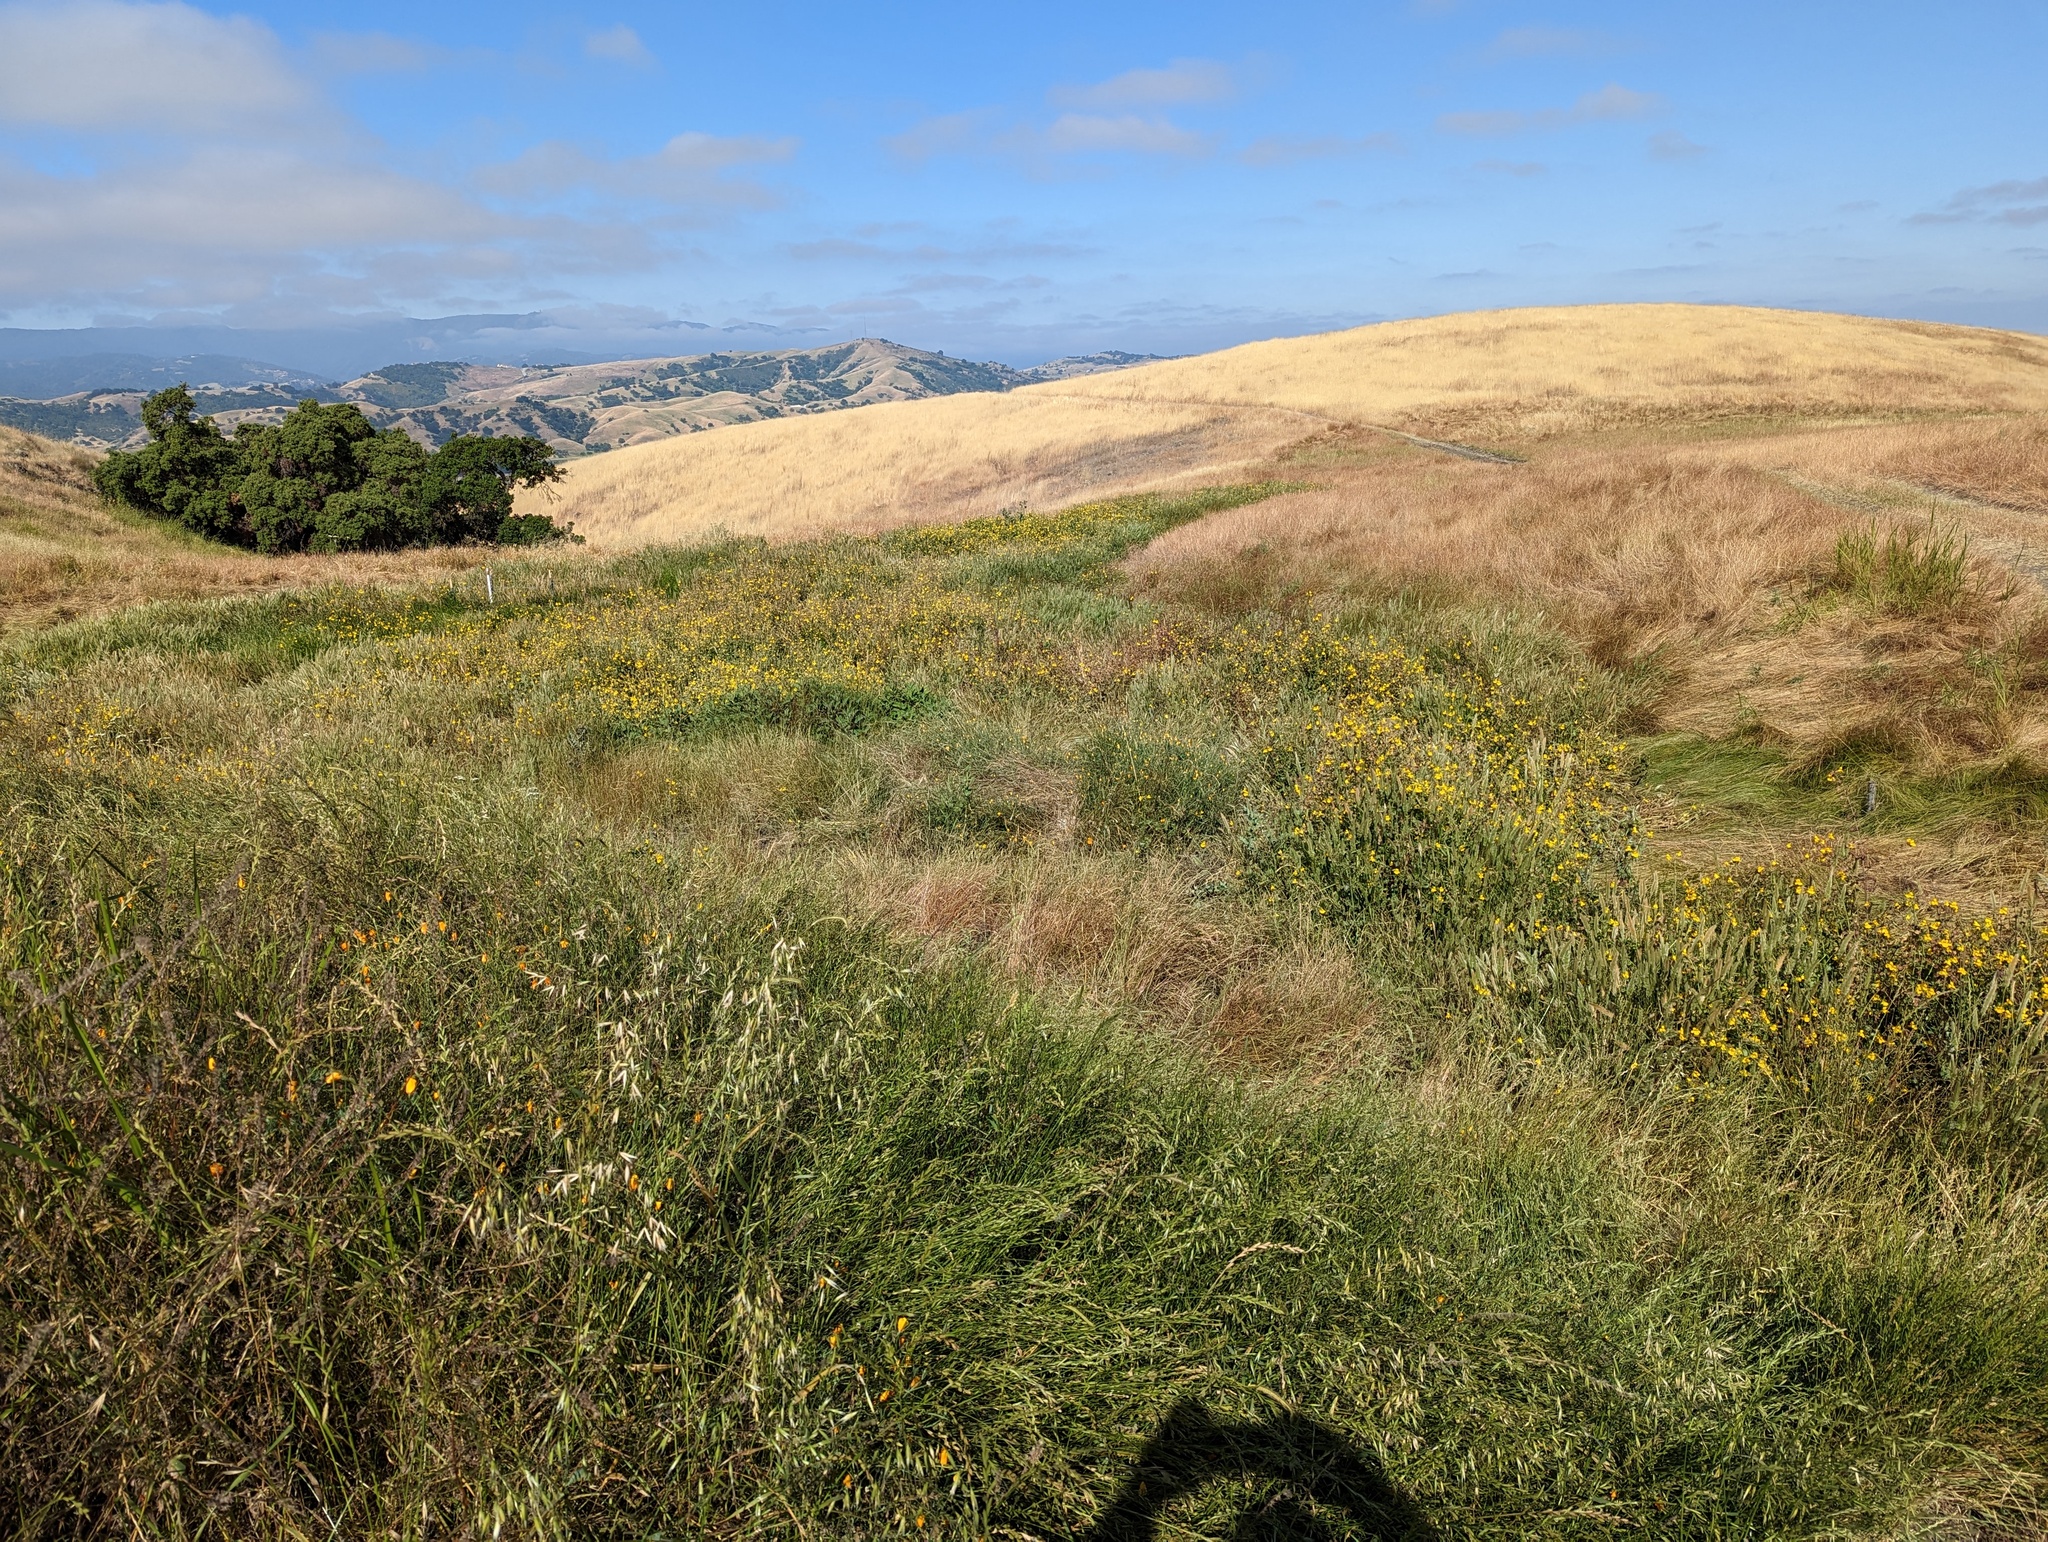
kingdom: Plantae
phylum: Tracheophyta
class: Magnoliopsida
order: Lamiales
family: Phrymaceae
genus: Erythranthe
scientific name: Erythranthe guttata
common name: Monkeyflower
